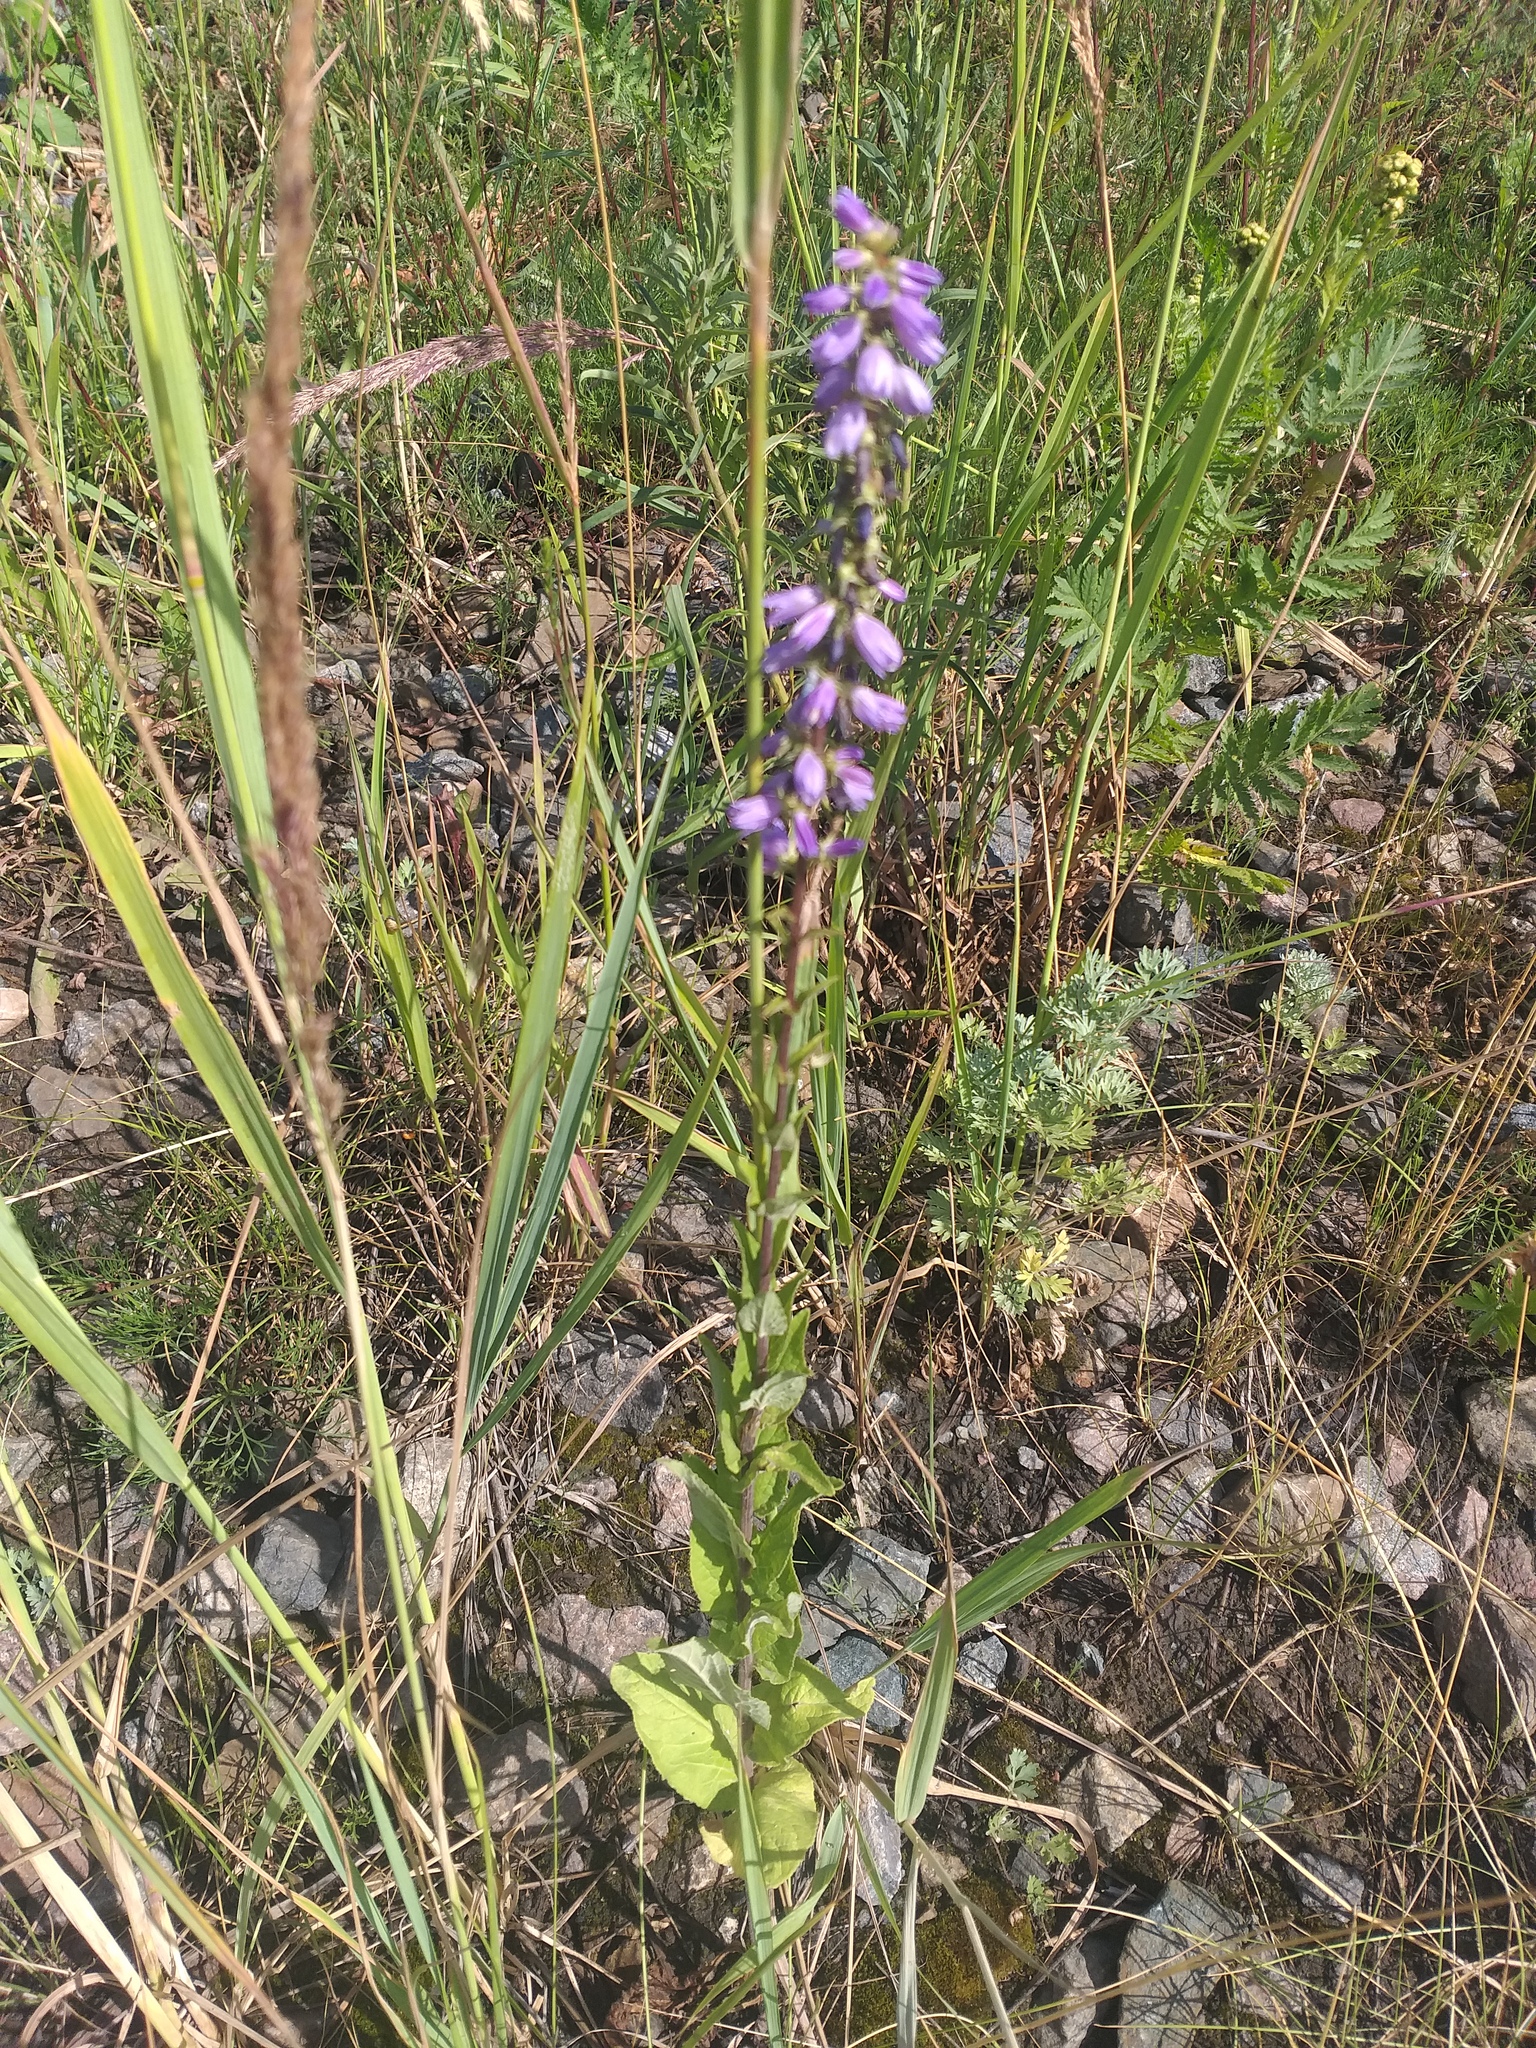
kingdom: Plantae
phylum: Tracheophyta
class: Magnoliopsida
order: Asterales
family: Campanulaceae
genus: Campanula
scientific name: Campanula bononiensis
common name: Pale bellflower
